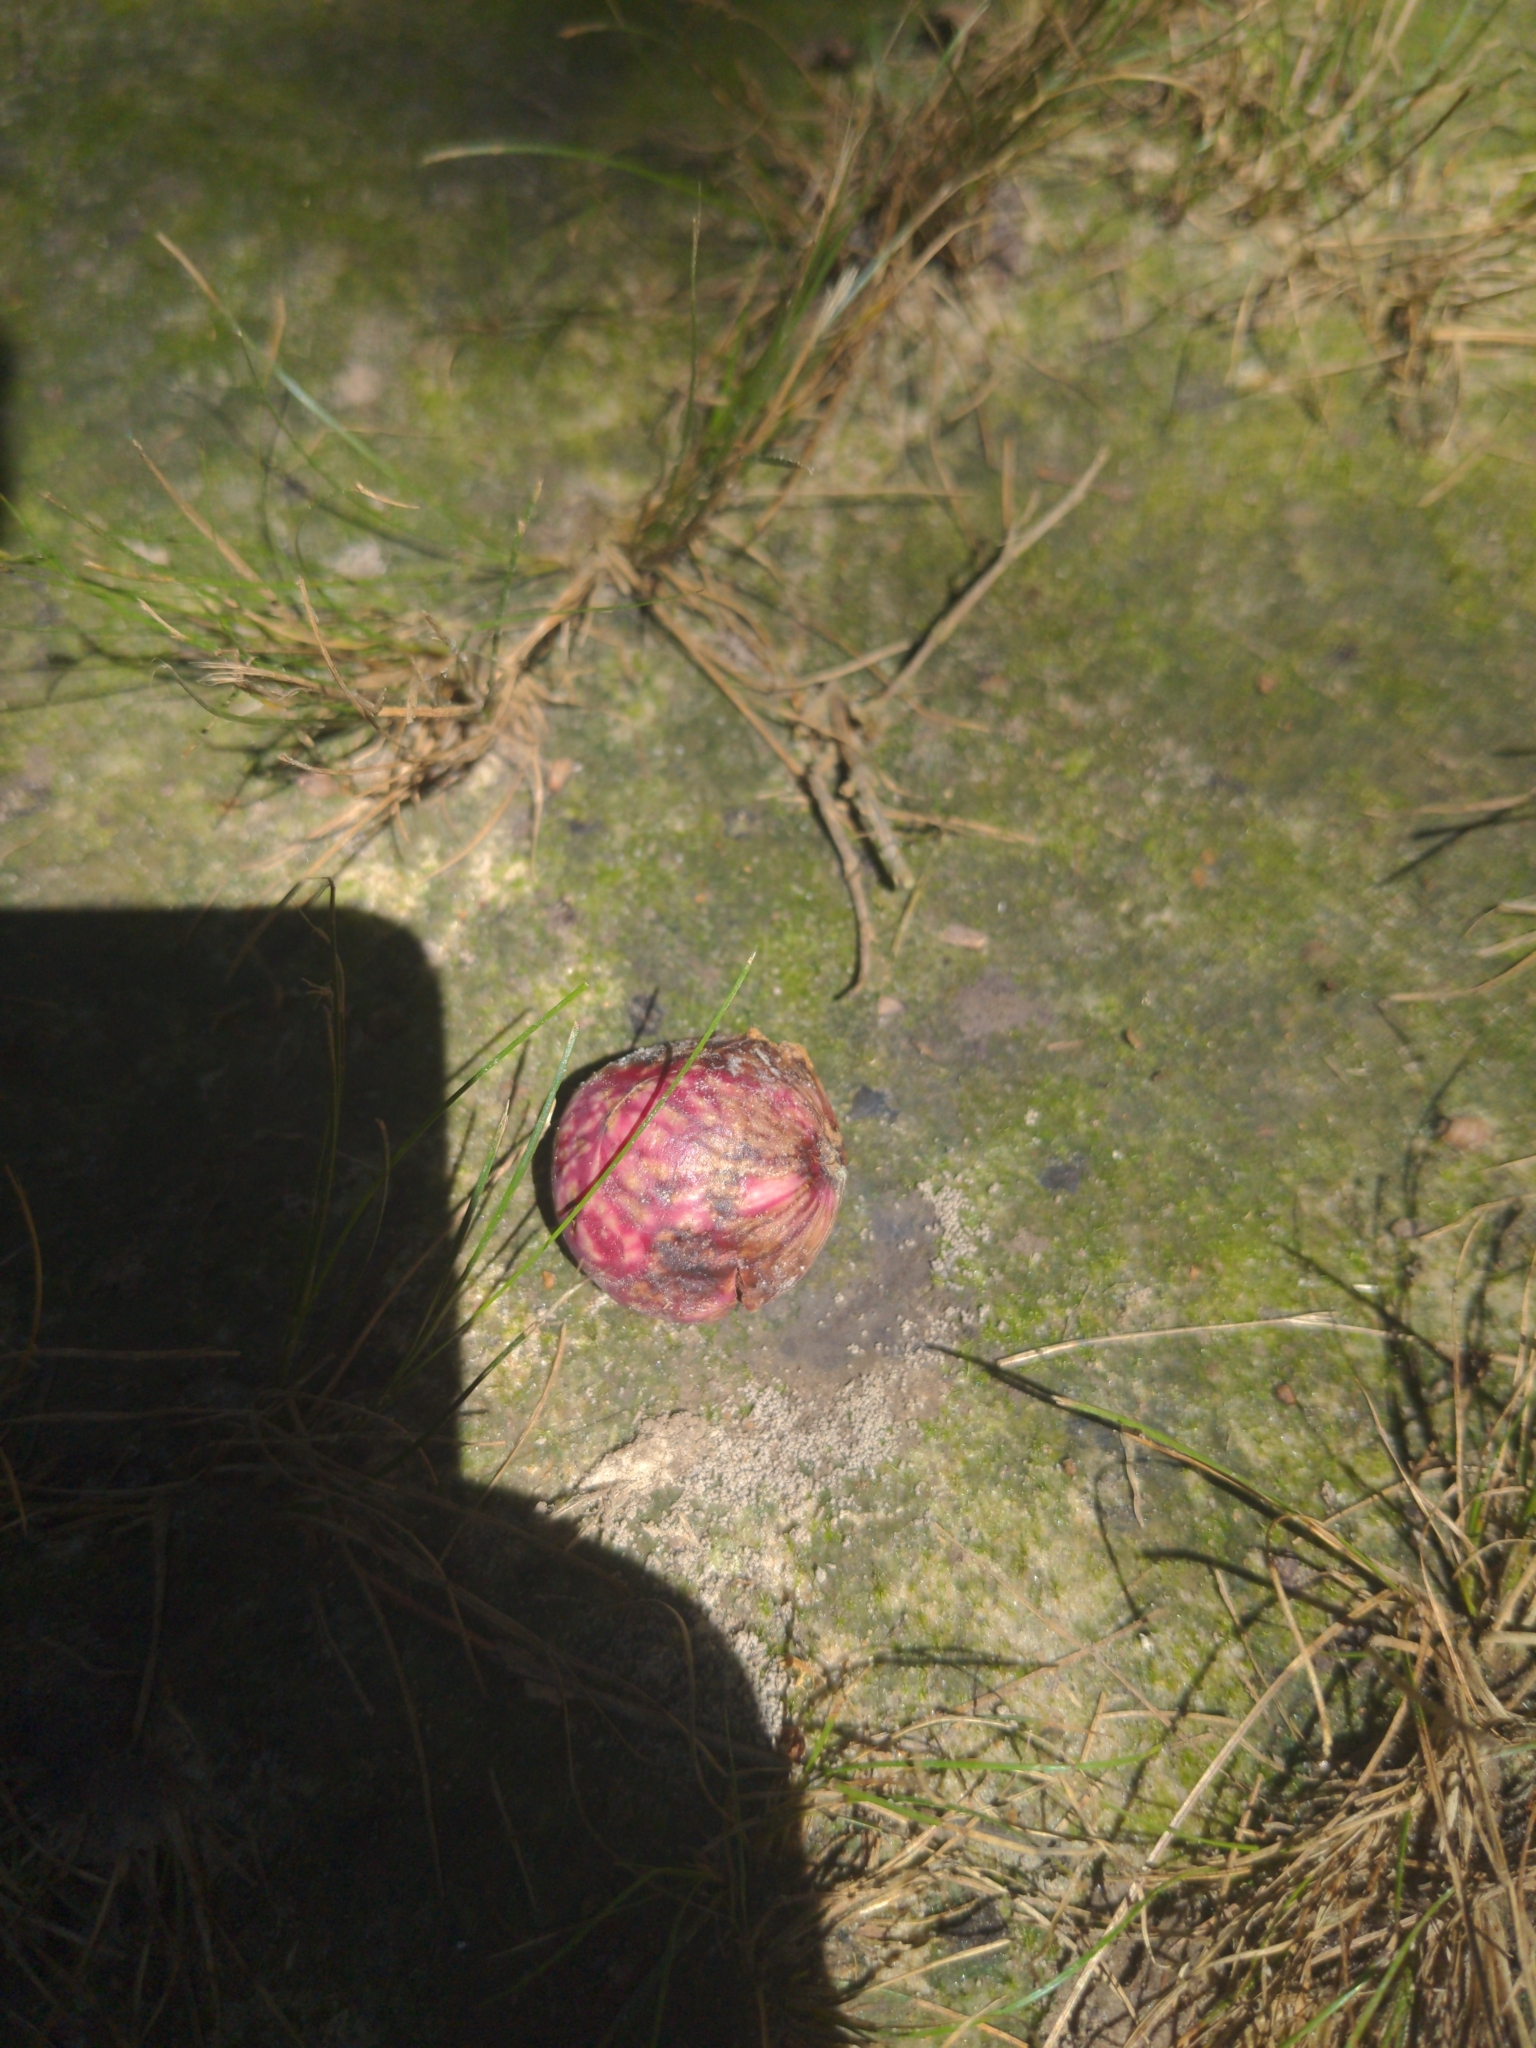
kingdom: Animalia
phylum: Arthropoda
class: Insecta
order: Hymenoptera
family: Cynipidae
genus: Amphibolips
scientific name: Amphibolips
